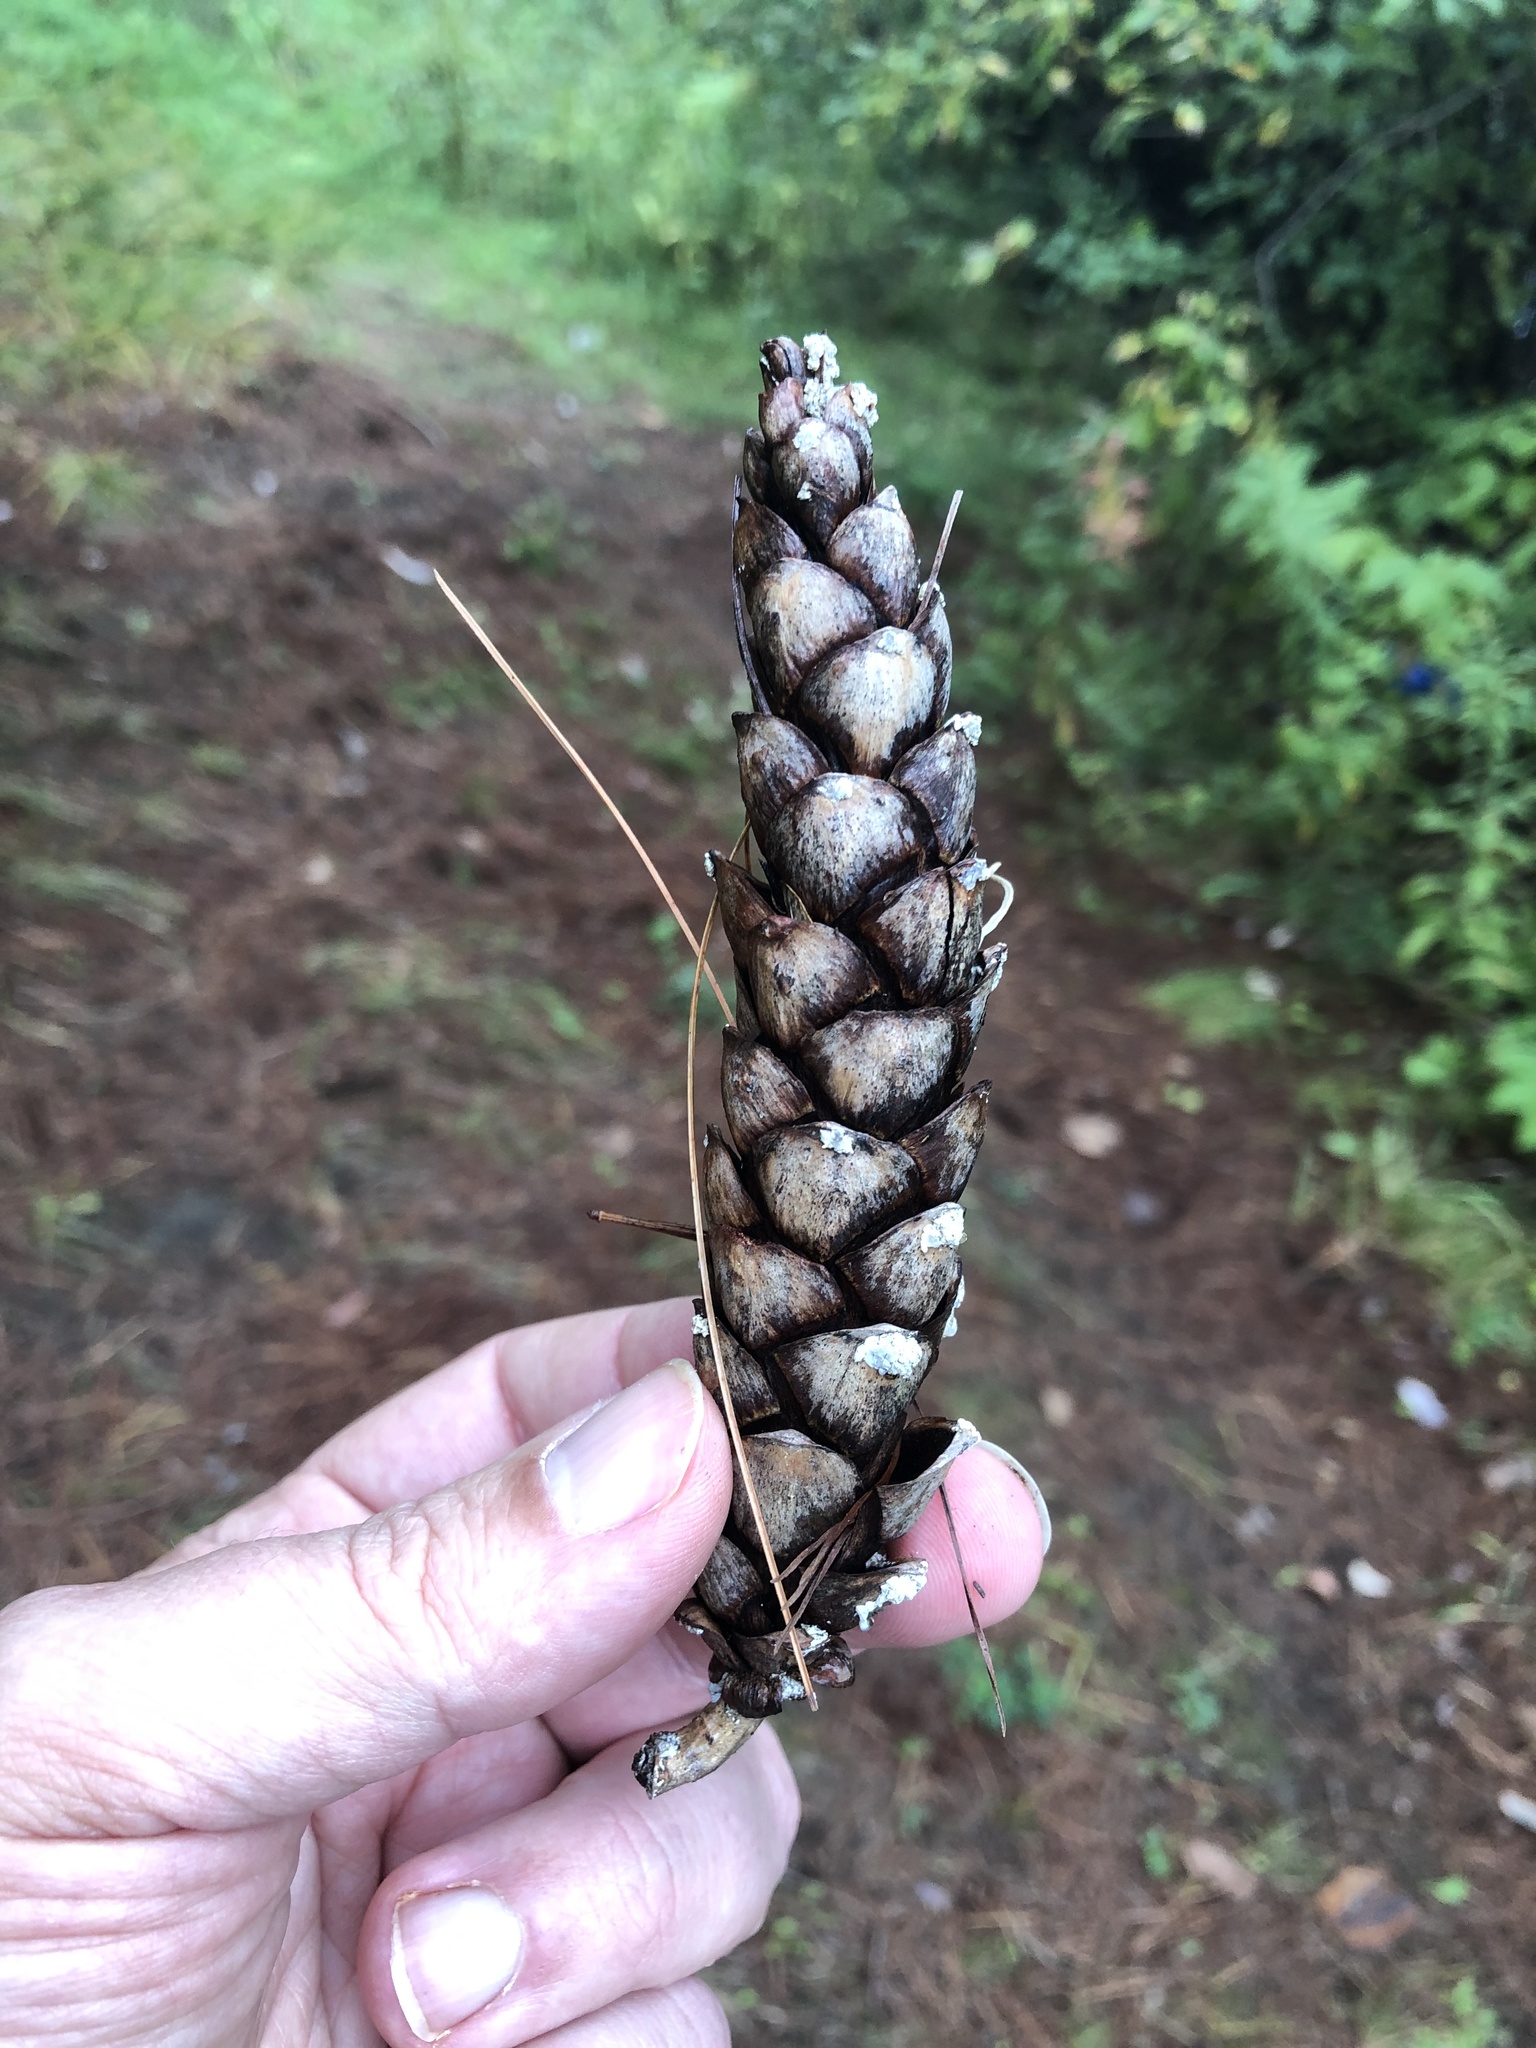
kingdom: Plantae
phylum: Tracheophyta
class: Pinopsida
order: Pinales
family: Pinaceae
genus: Pinus
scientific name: Pinus strobus
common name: Weymouth pine
